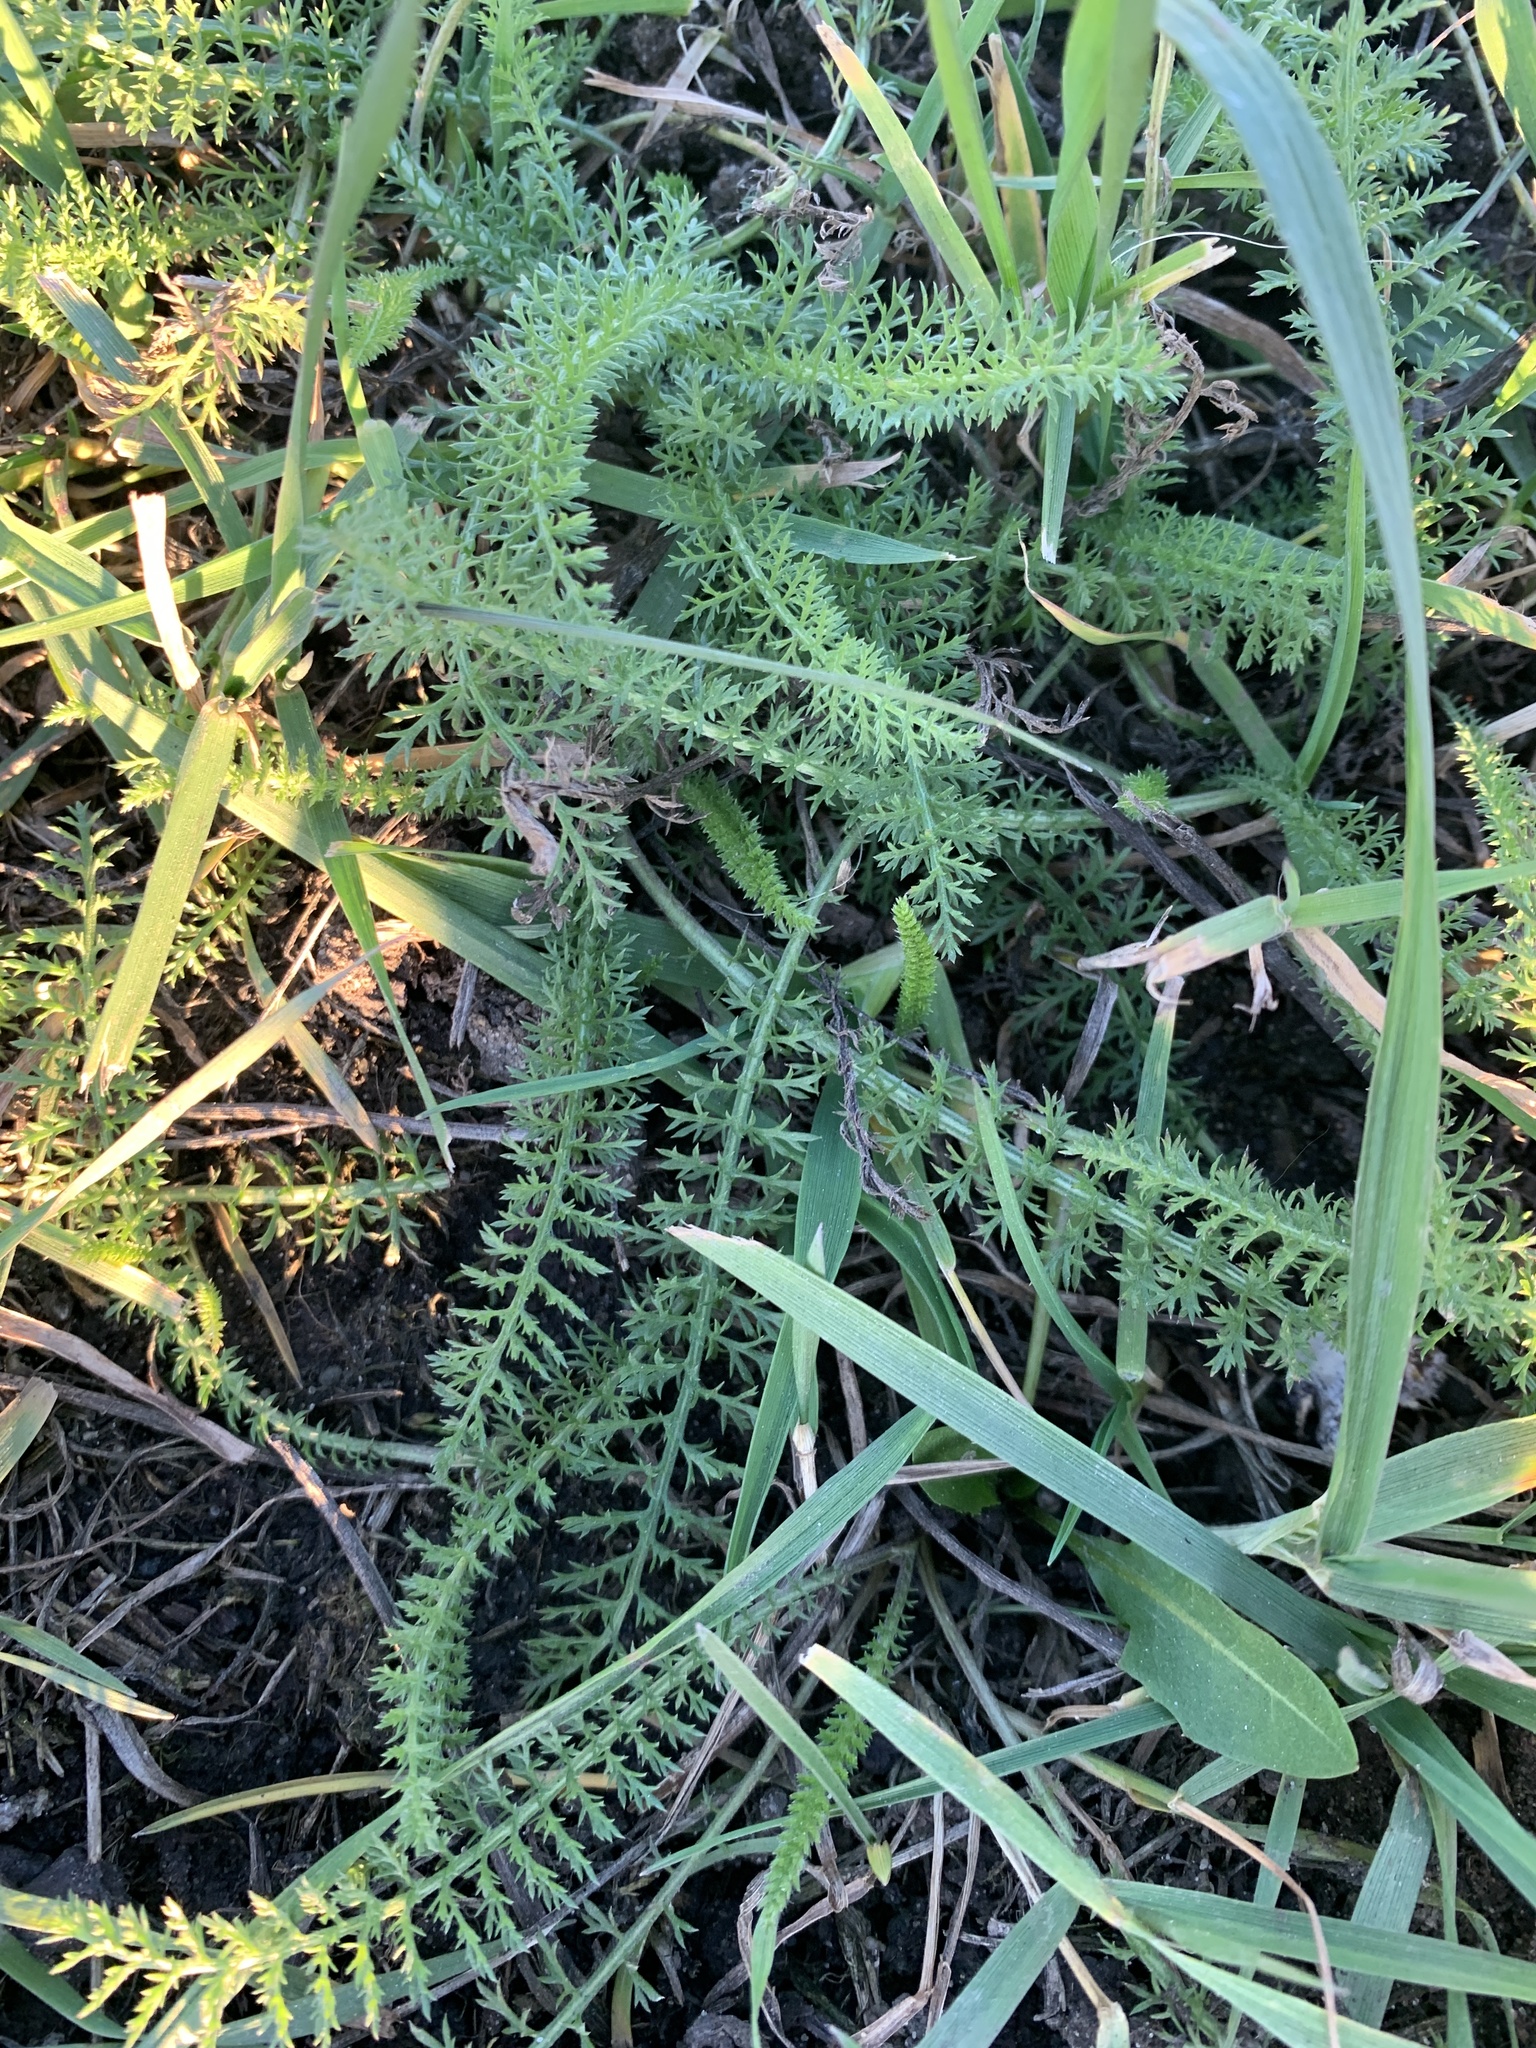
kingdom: Plantae
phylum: Tracheophyta
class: Magnoliopsida
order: Asterales
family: Asteraceae
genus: Achillea
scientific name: Achillea millefolium
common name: Yarrow
